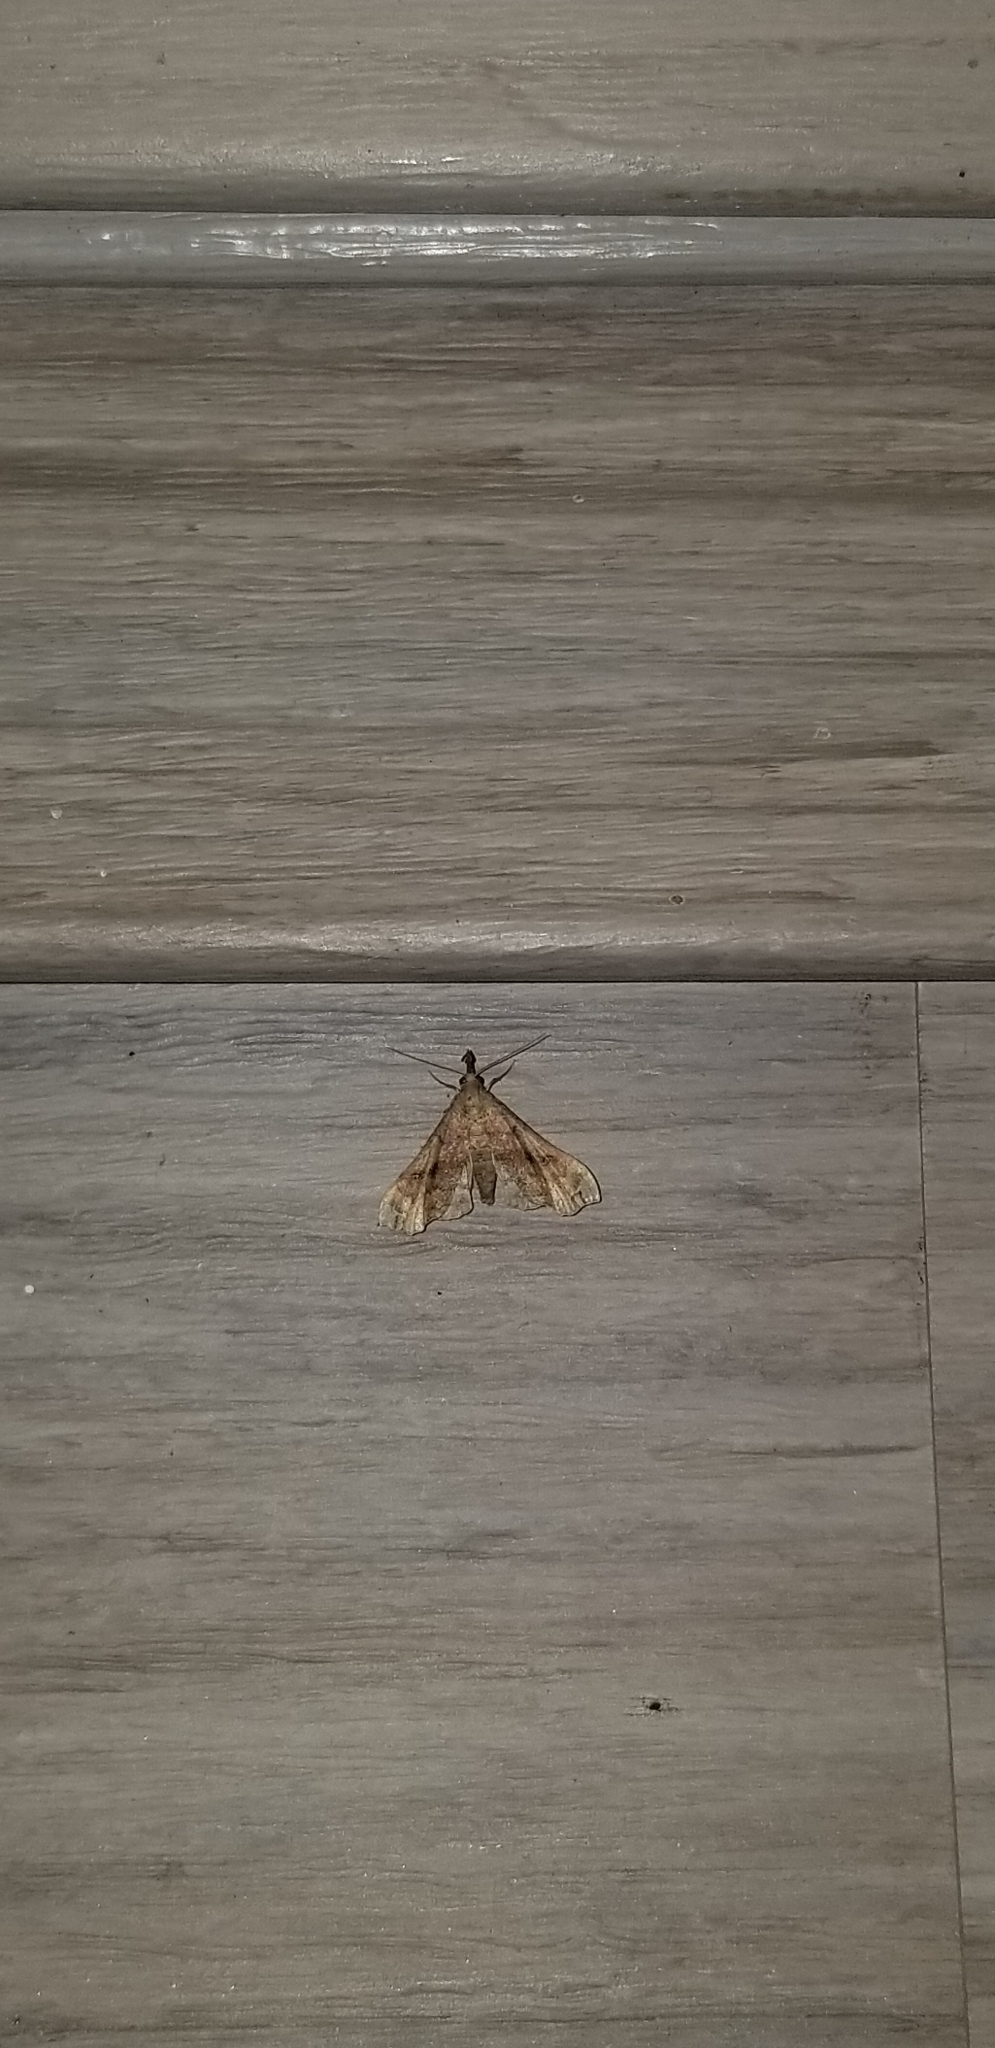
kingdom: Animalia
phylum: Arthropoda
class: Insecta
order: Lepidoptera
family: Erebidae
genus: Palthis
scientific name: Palthis asopialis
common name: Faint-spotted palthis moth
